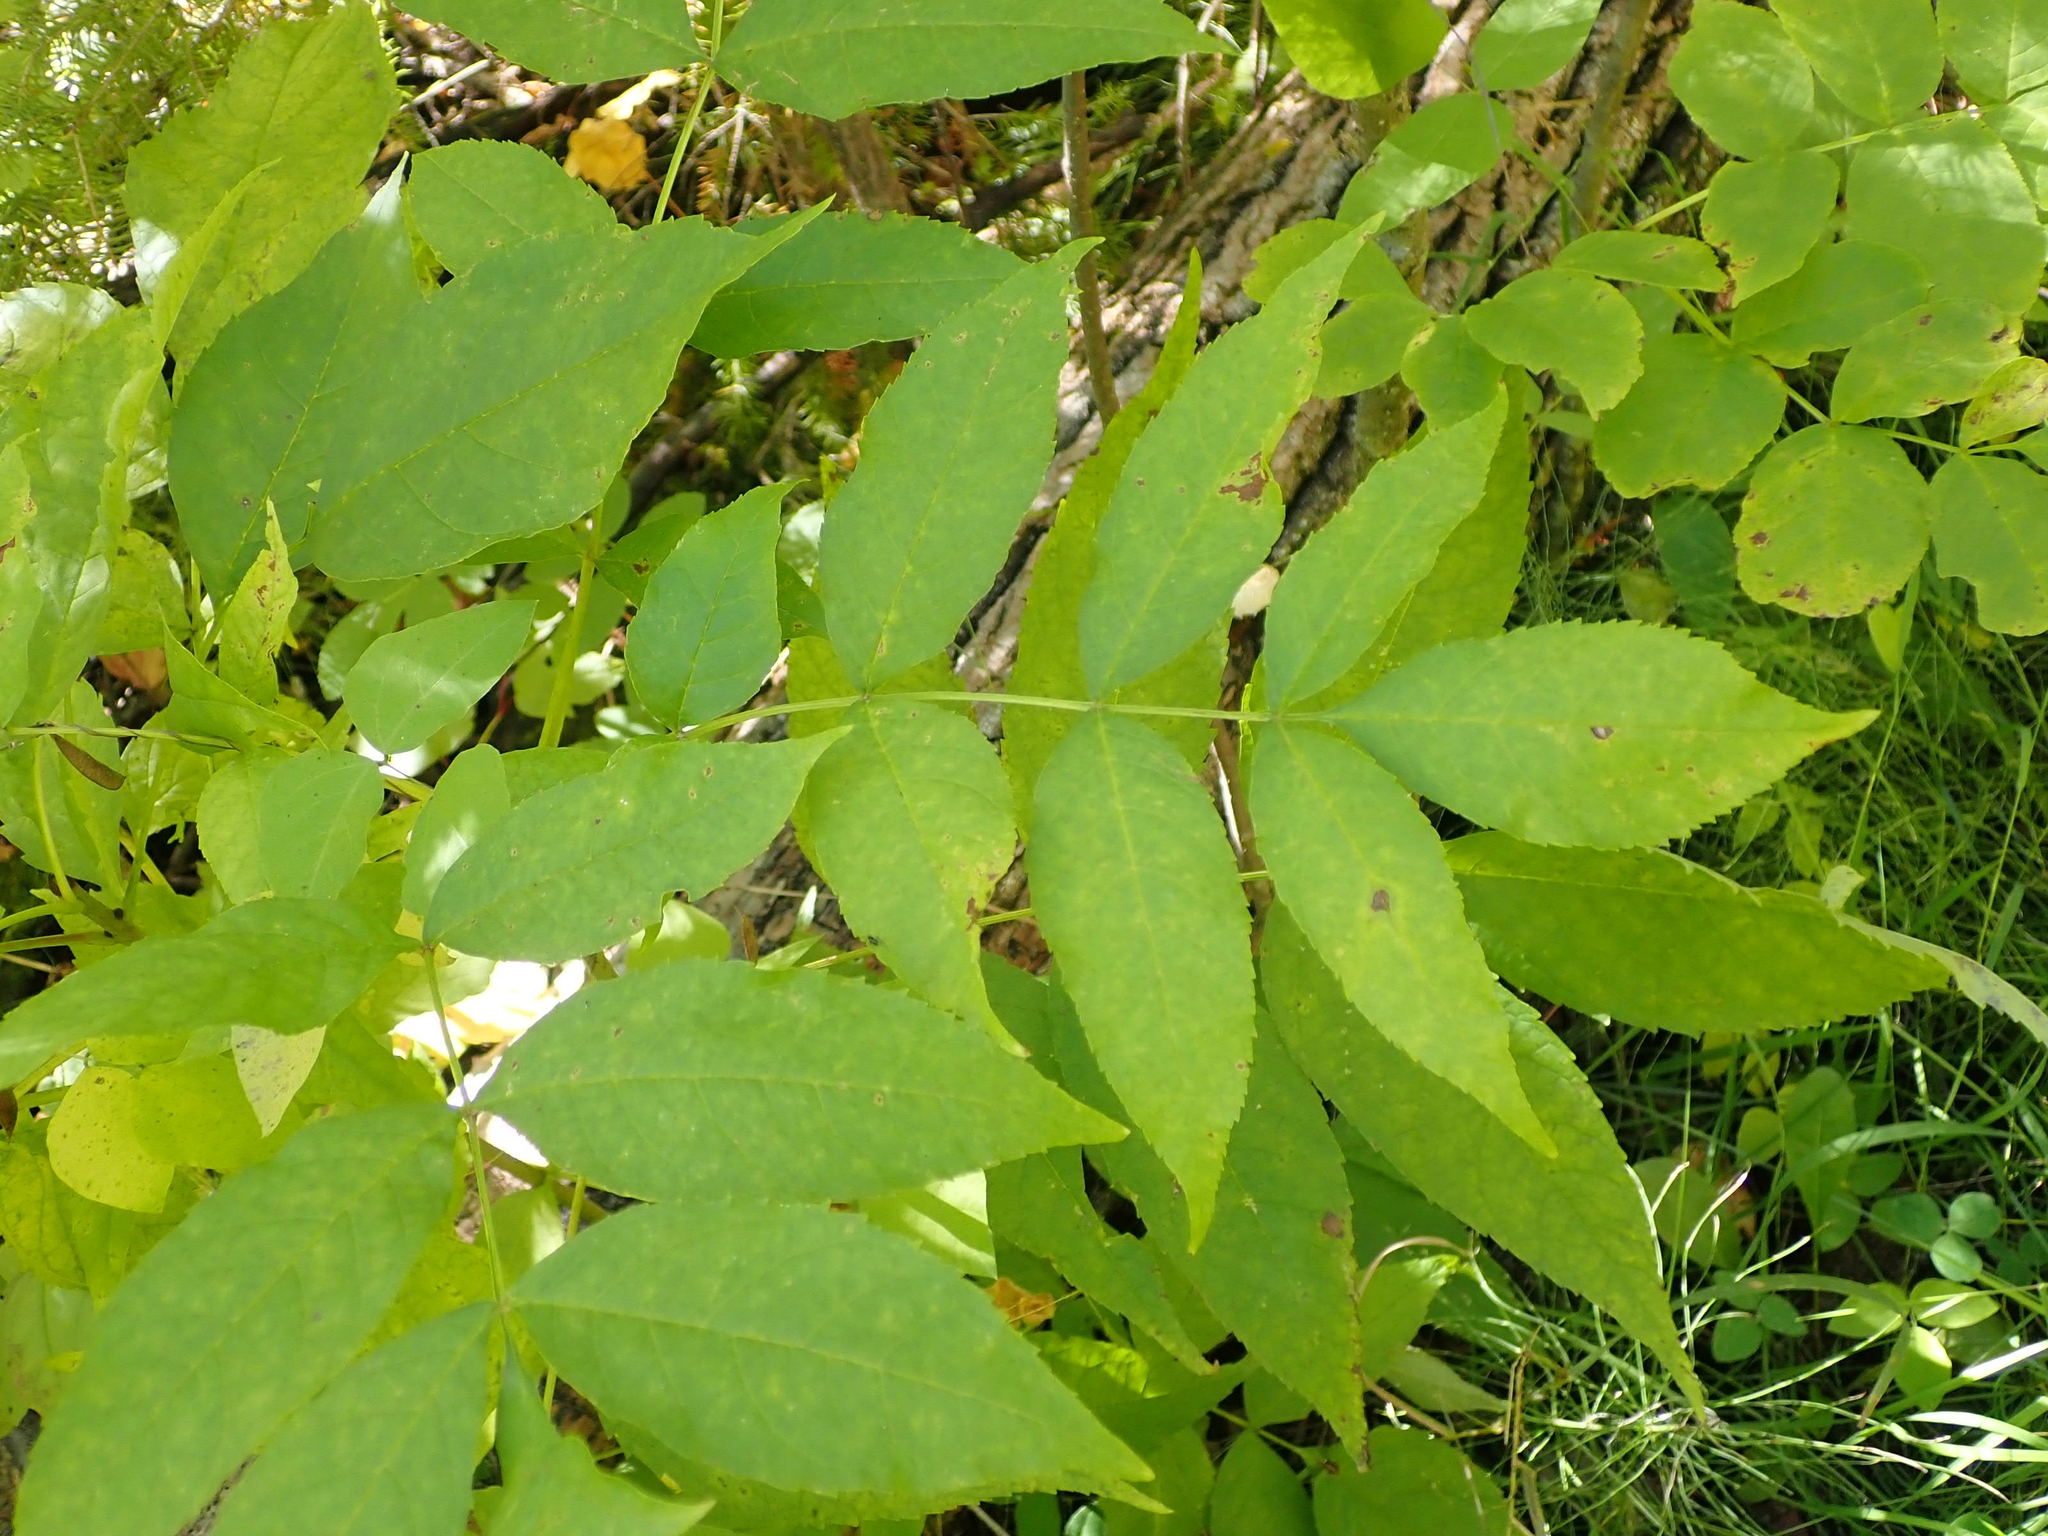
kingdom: Plantae
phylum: Tracheophyta
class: Magnoliopsida
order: Lamiales
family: Oleaceae
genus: Fraxinus
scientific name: Fraxinus pennsylvanica
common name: Green ash
